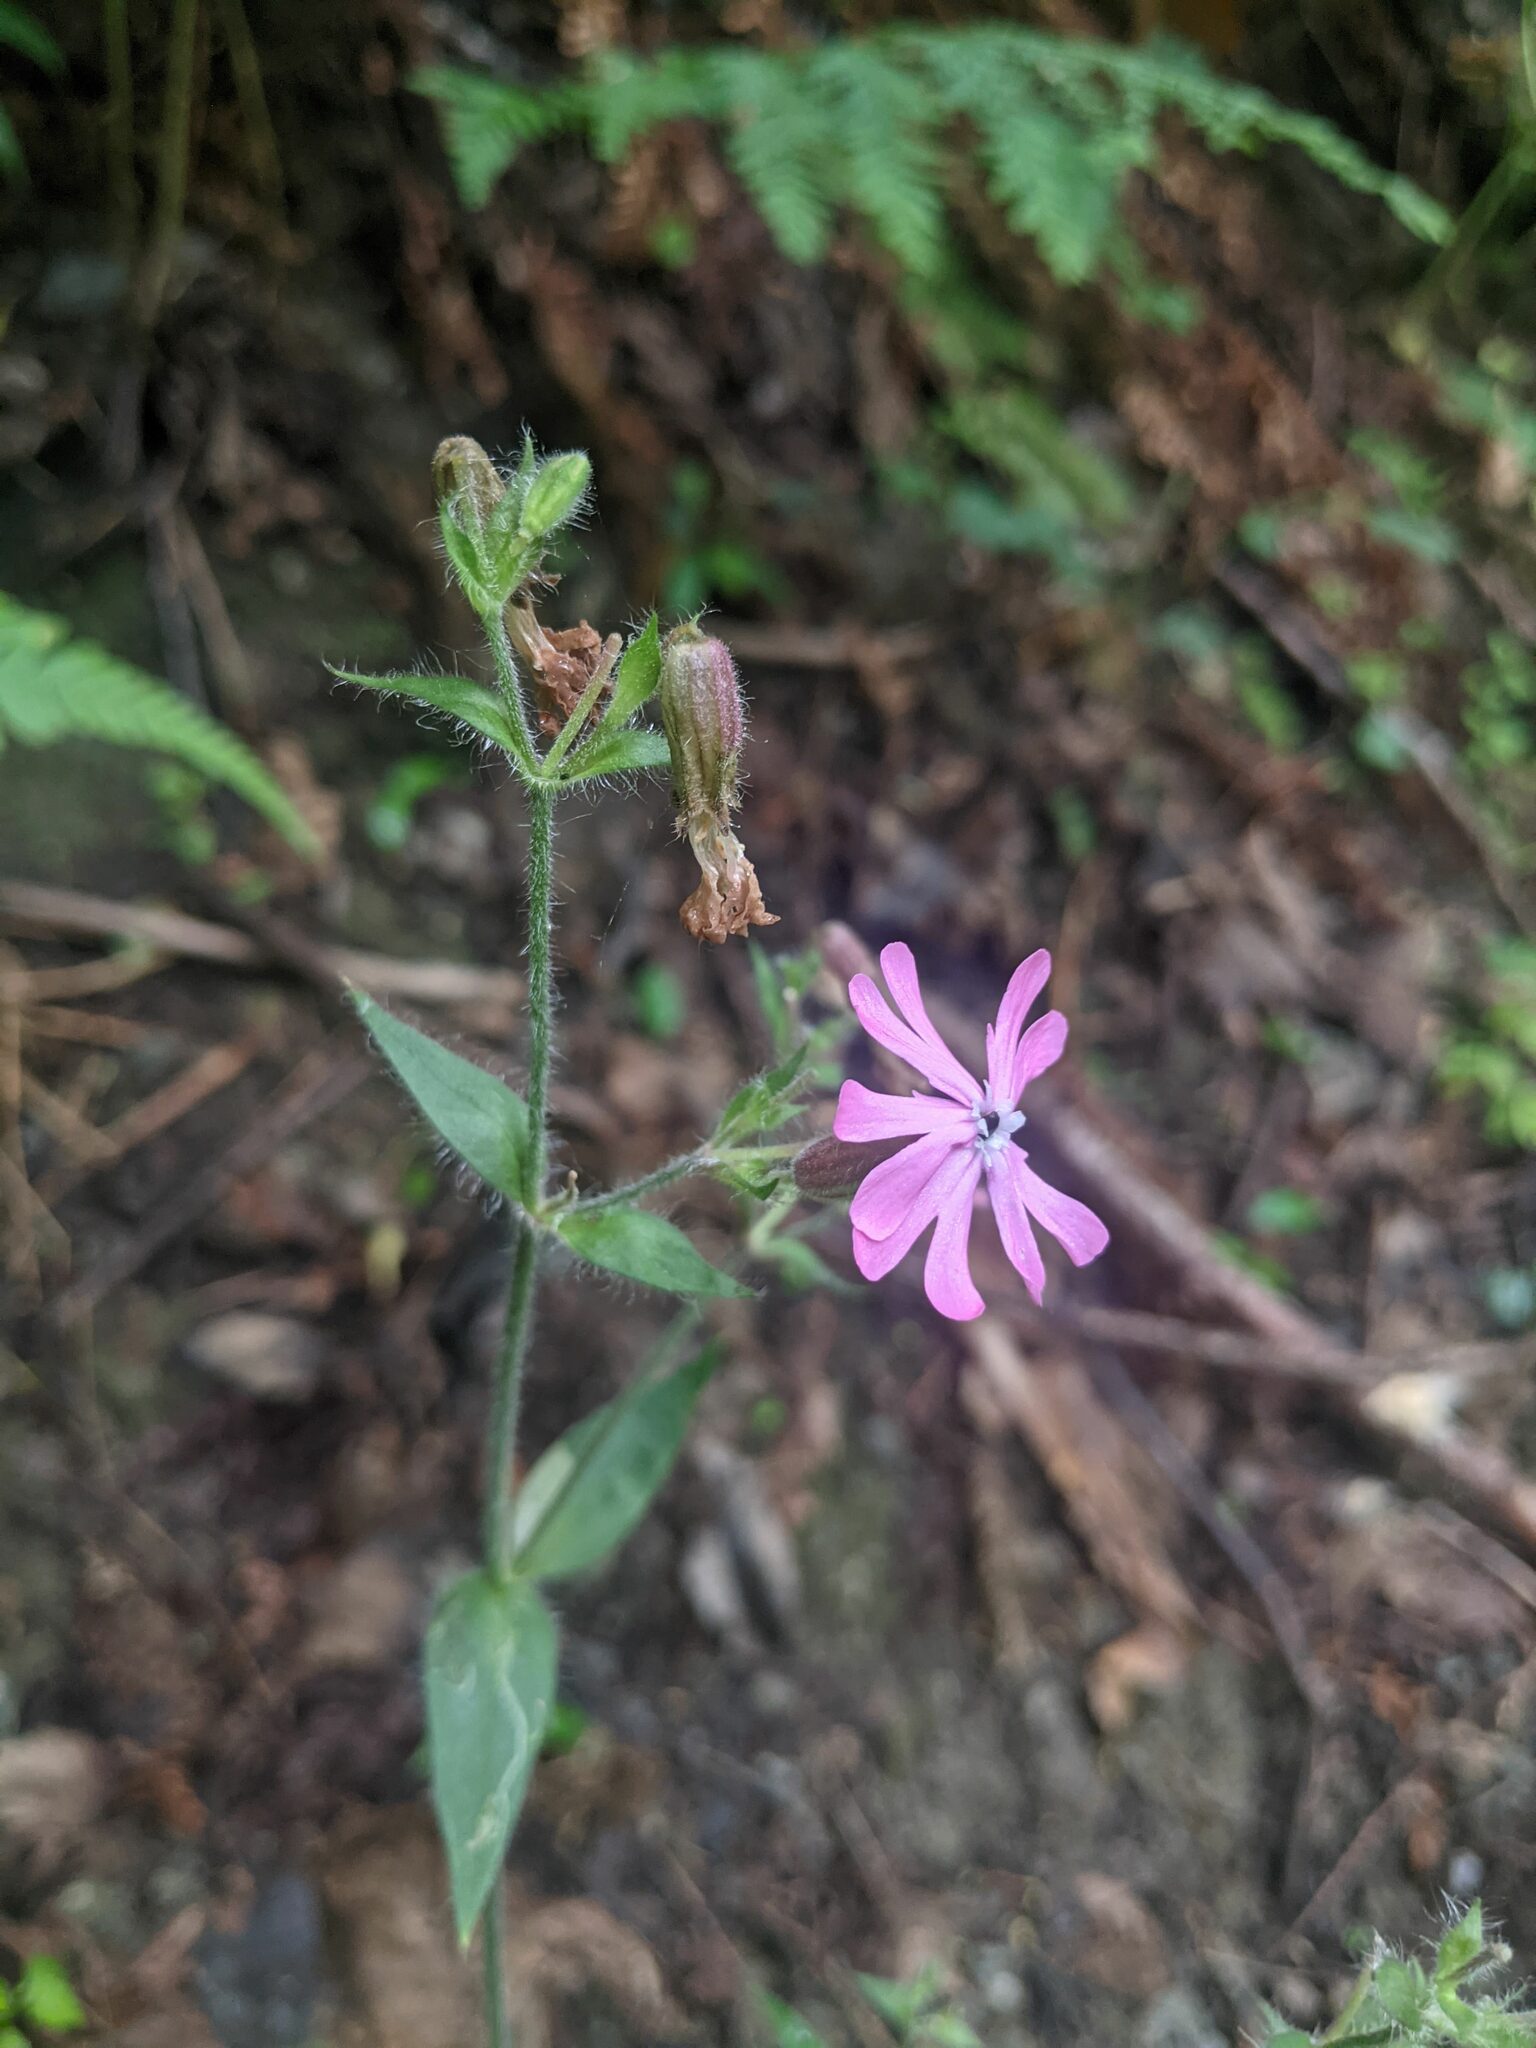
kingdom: Plantae
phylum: Tracheophyta
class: Magnoliopsida
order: Caryophyllales
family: Caryophyllaceae
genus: Silene
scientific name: Silene dioica
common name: Red campion
